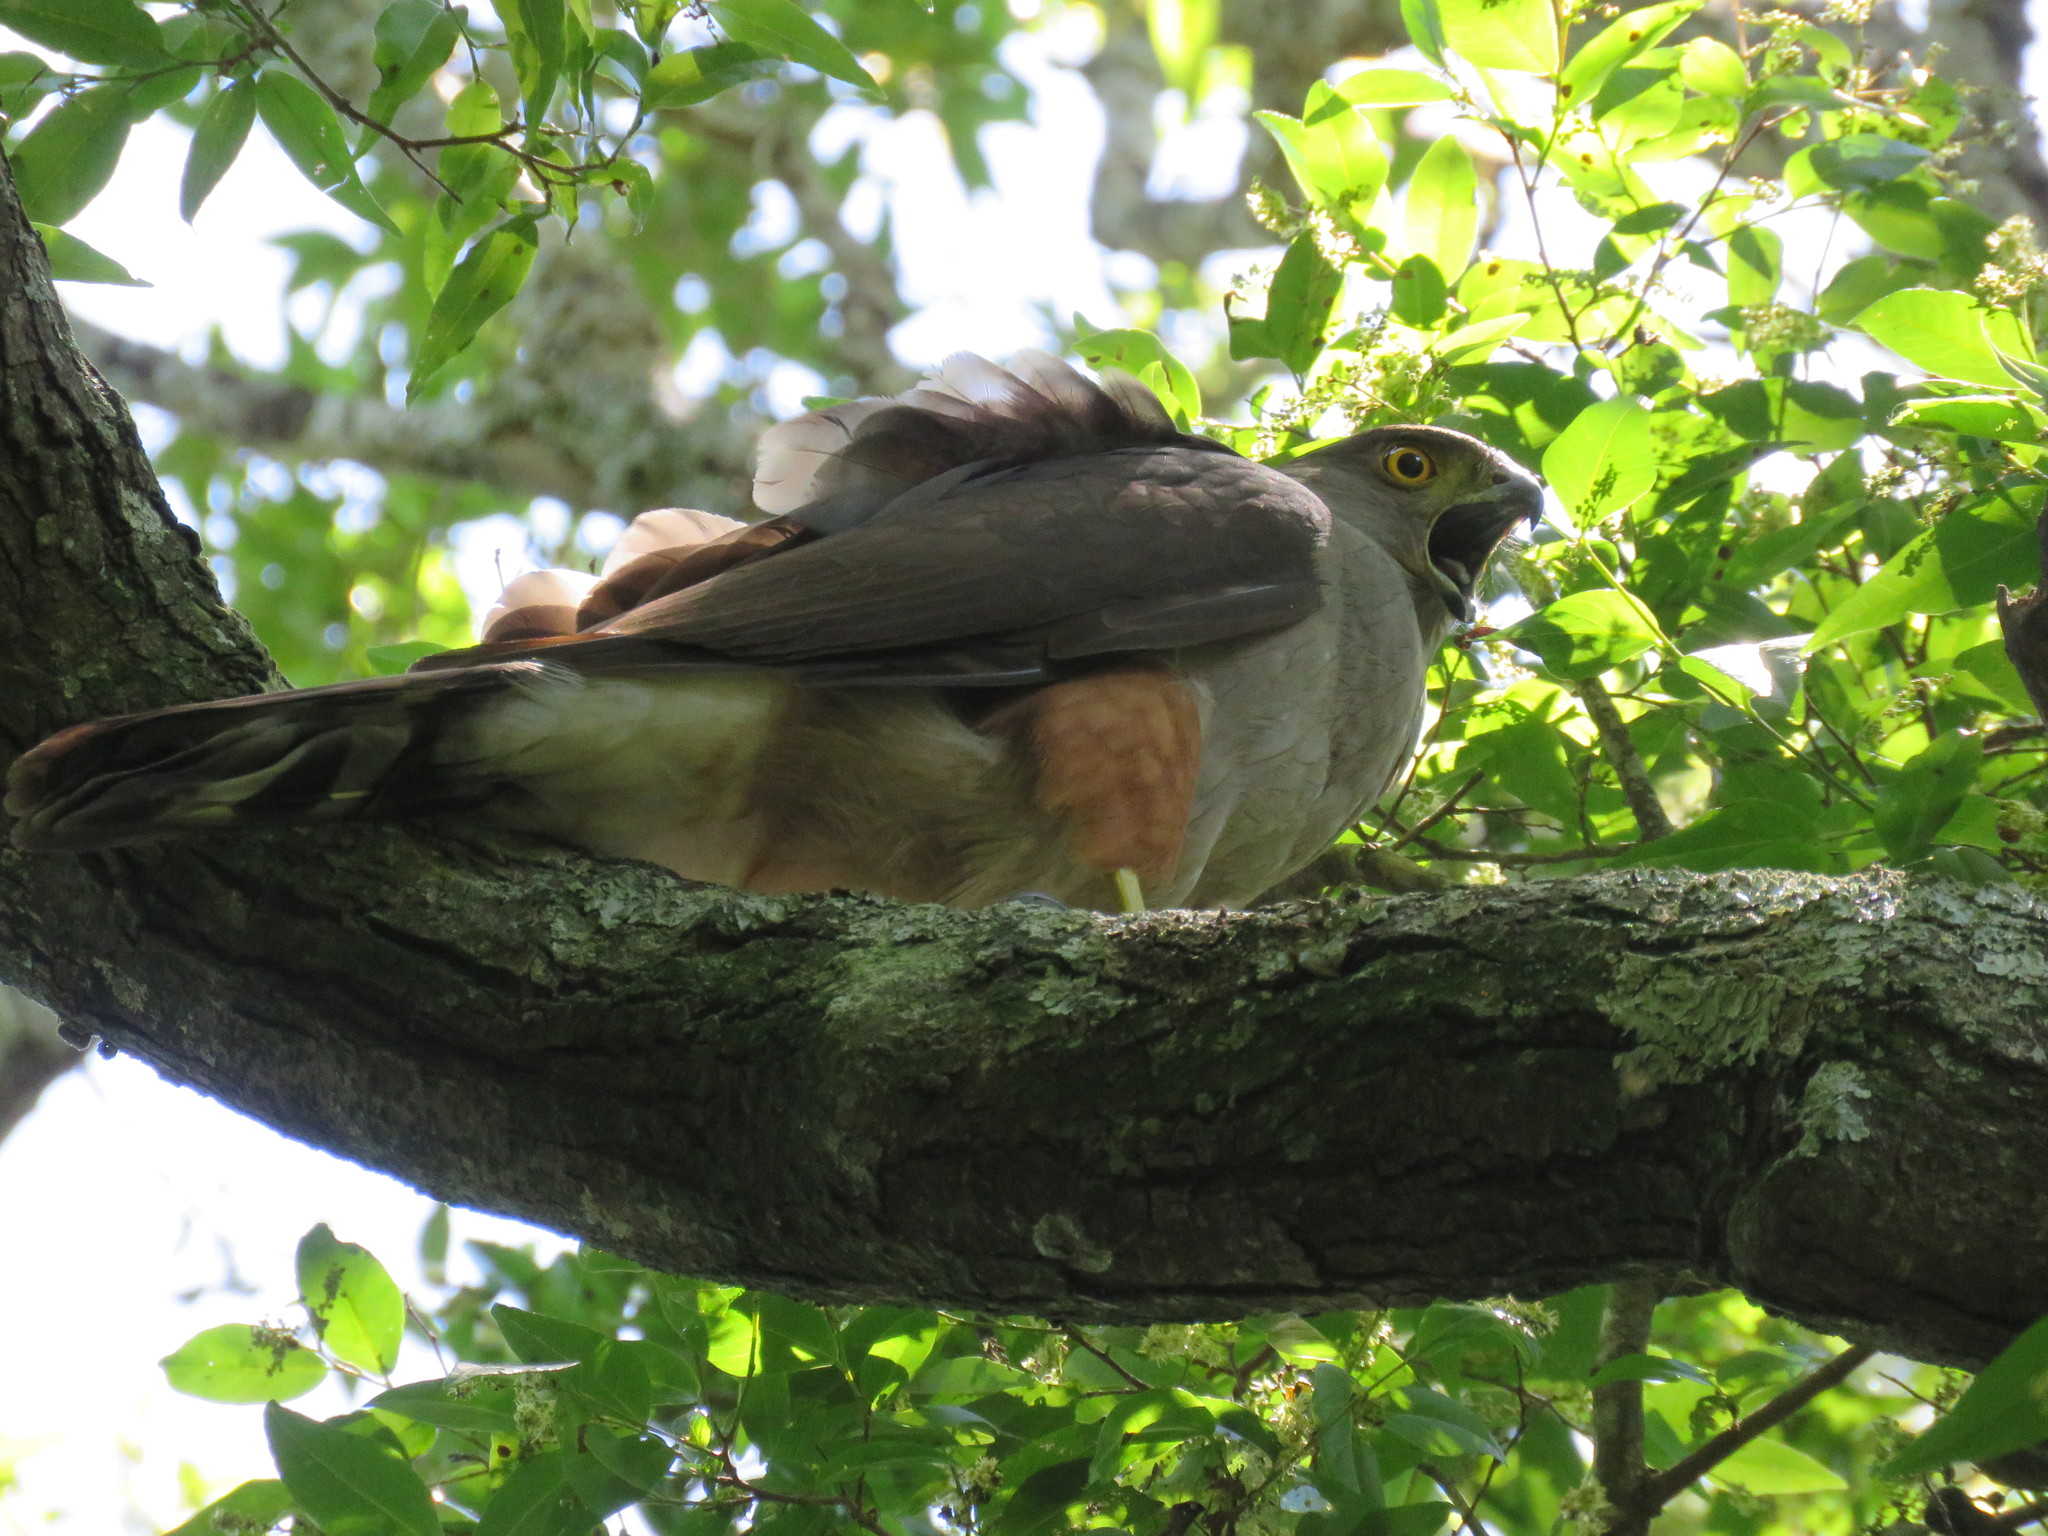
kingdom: Animalia
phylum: Chordata
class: Aves
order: Accipitriformes
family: Accipitridae
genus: Accipiter
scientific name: Accipiter bicolor
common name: Bicolored hawk
